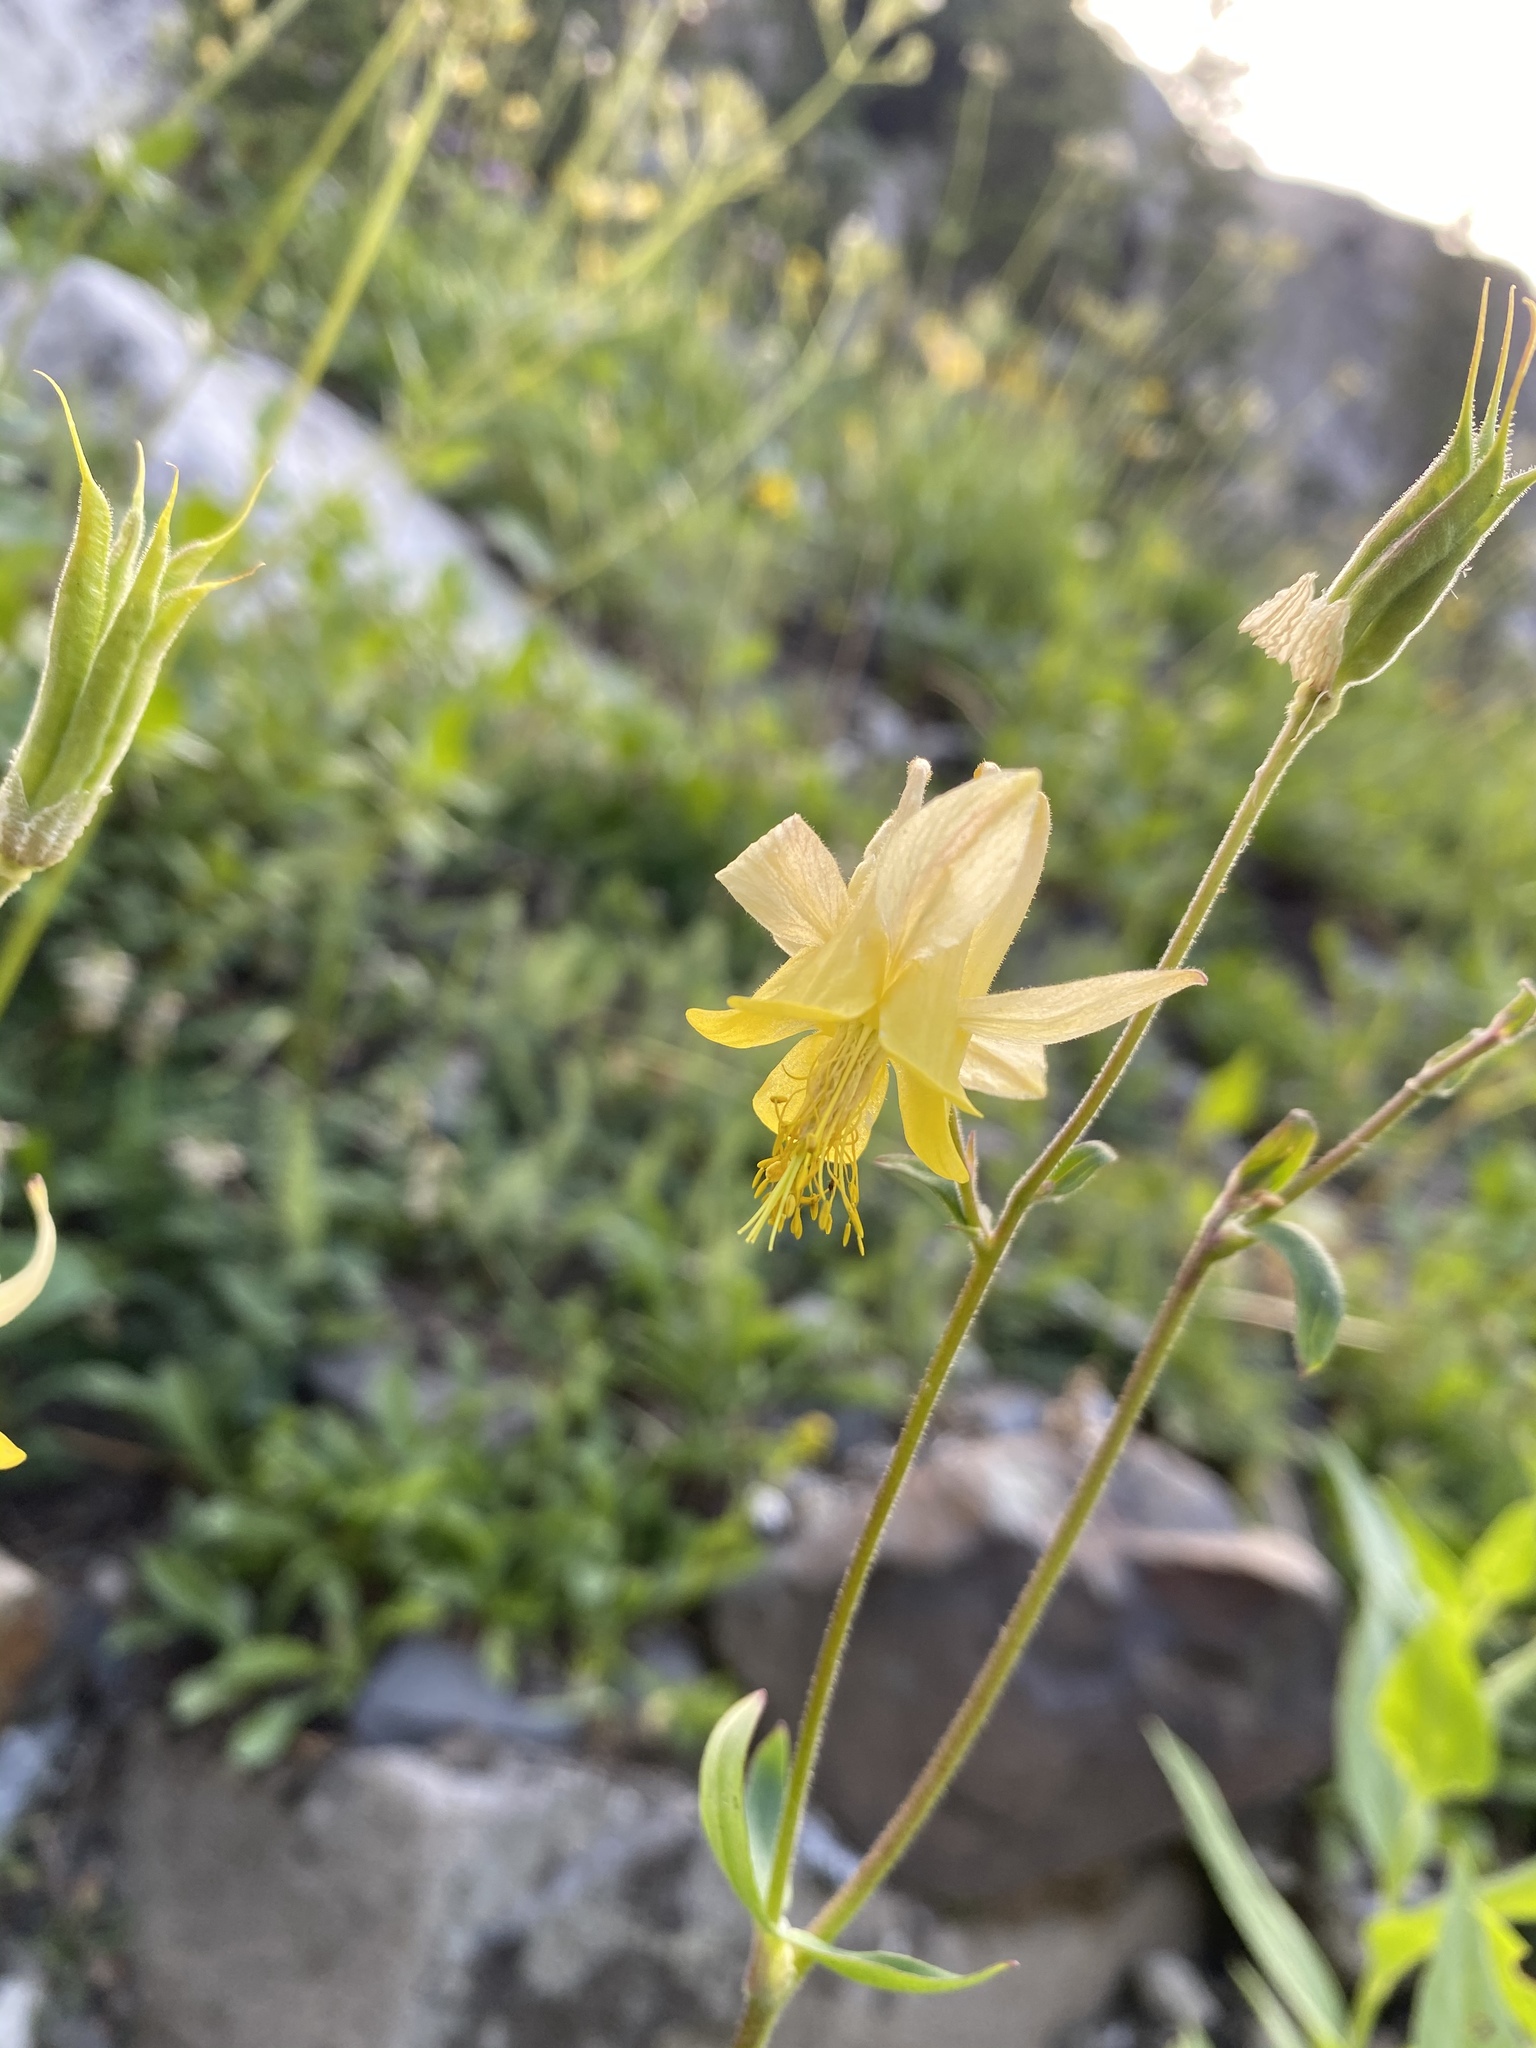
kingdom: Plantae
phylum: Tracheophyta
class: Magnoliopsida
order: Ranunculales
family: Ranunculaceae
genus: Aquilegia
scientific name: Aquilegia flavescens
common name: Yellow columbine
